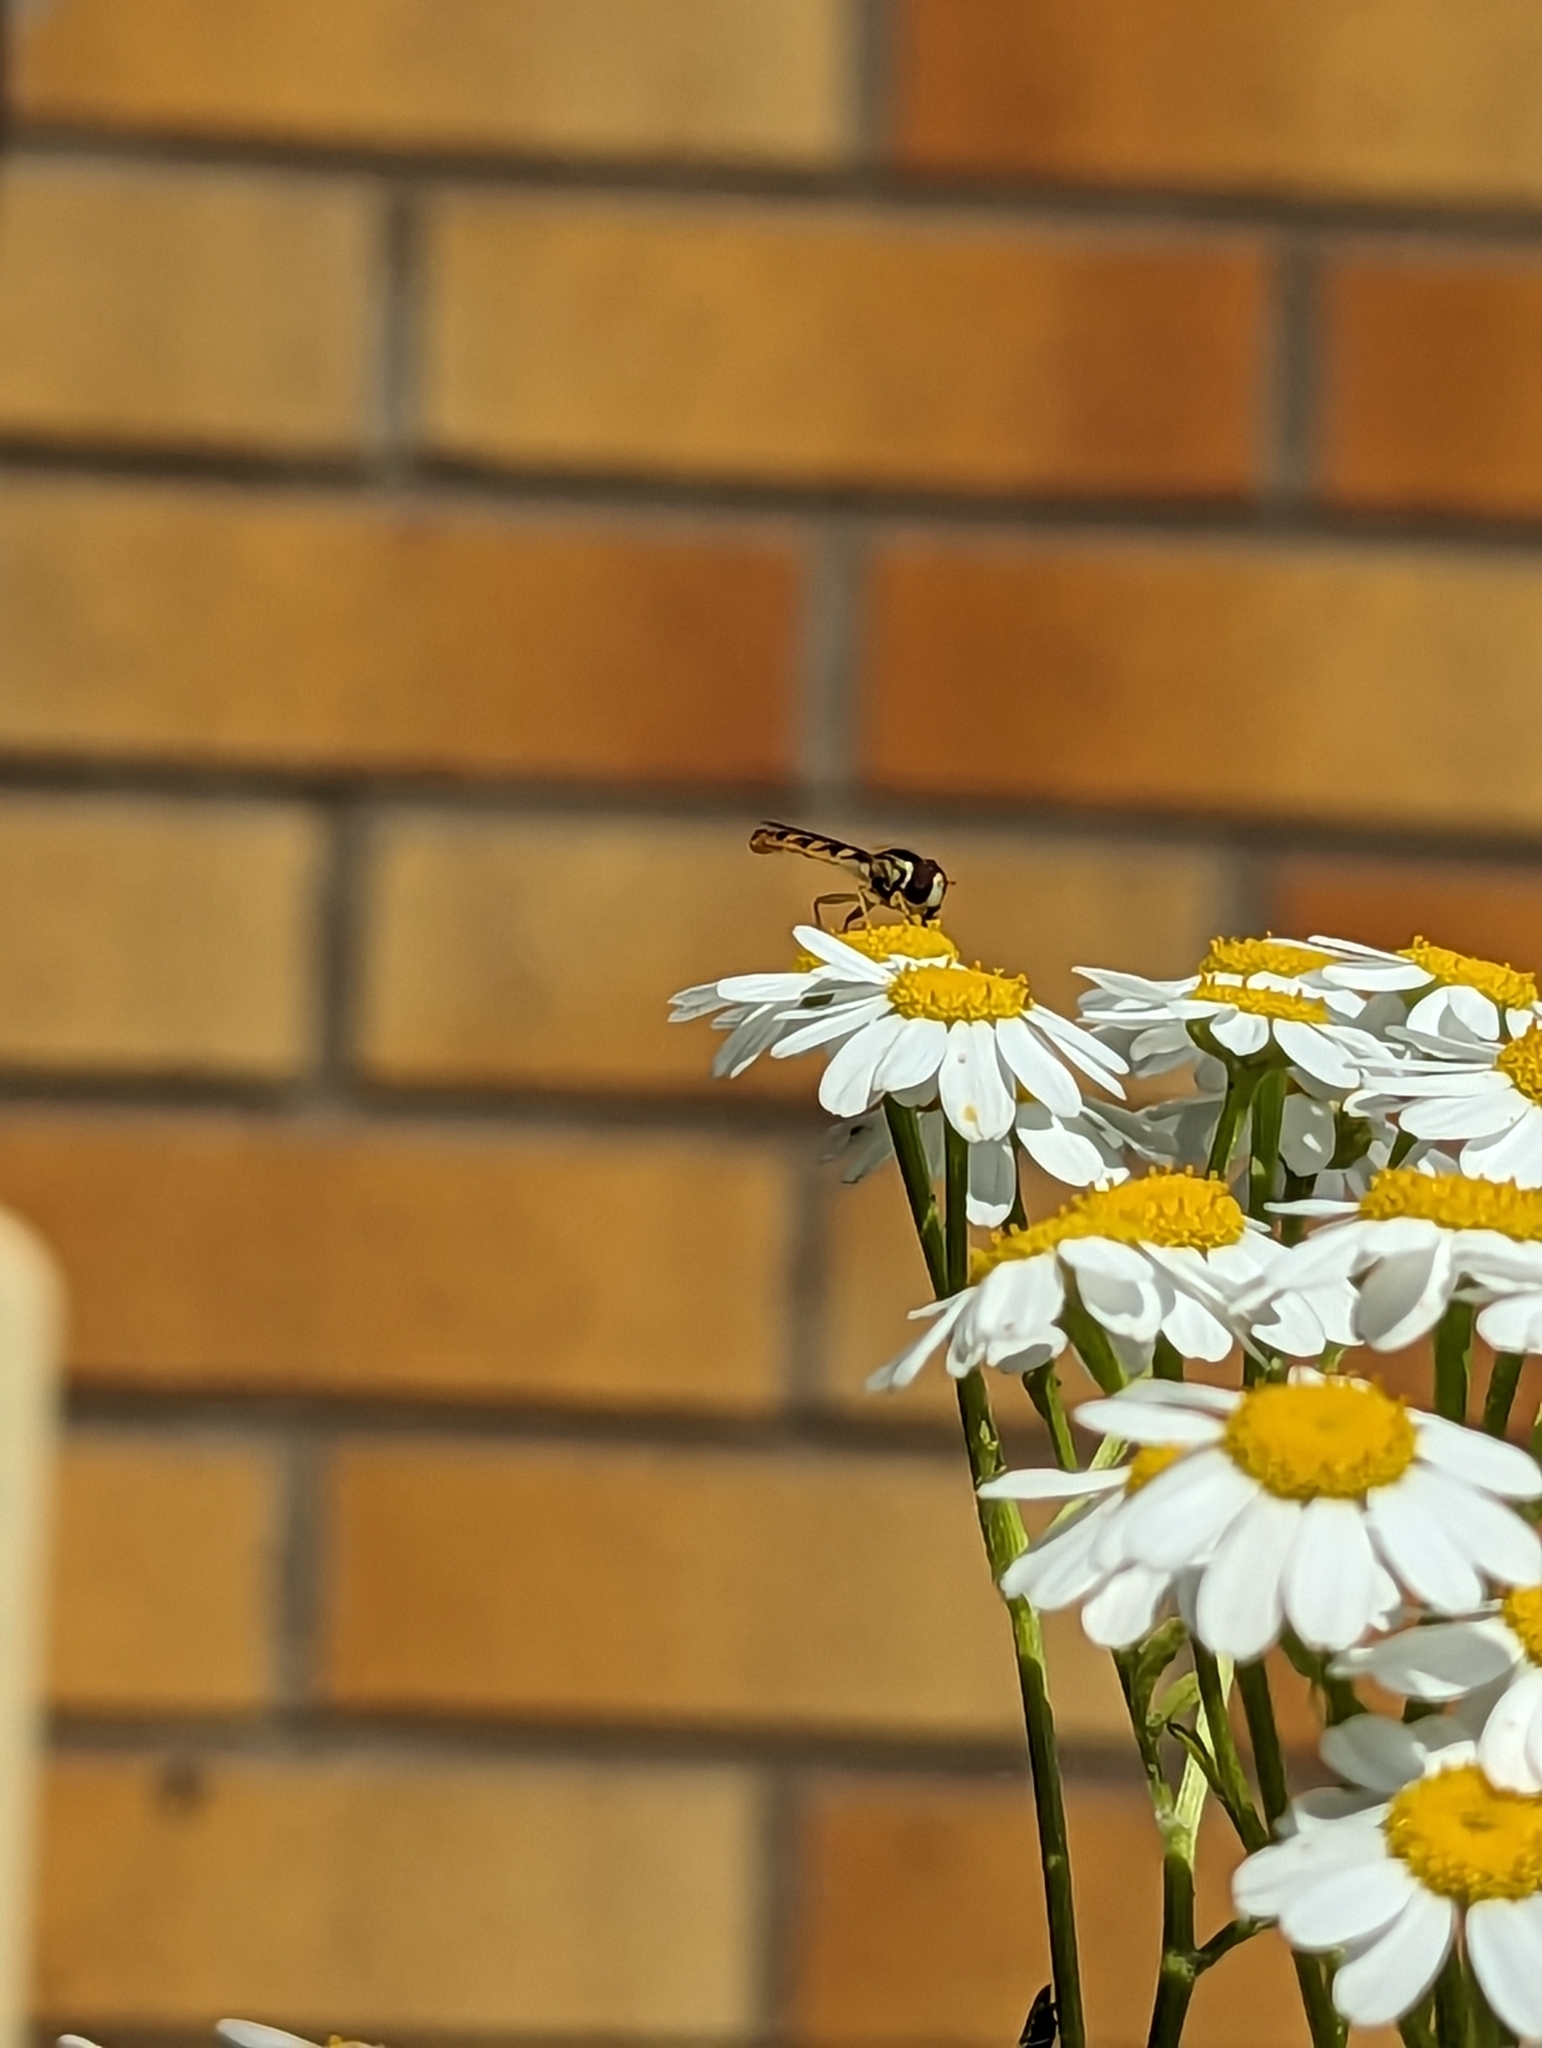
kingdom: Animalia
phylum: Arthropoda
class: Insecta
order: Diptera
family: Syrphidae
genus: Sphaerophoria
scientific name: Sphaerophoria
